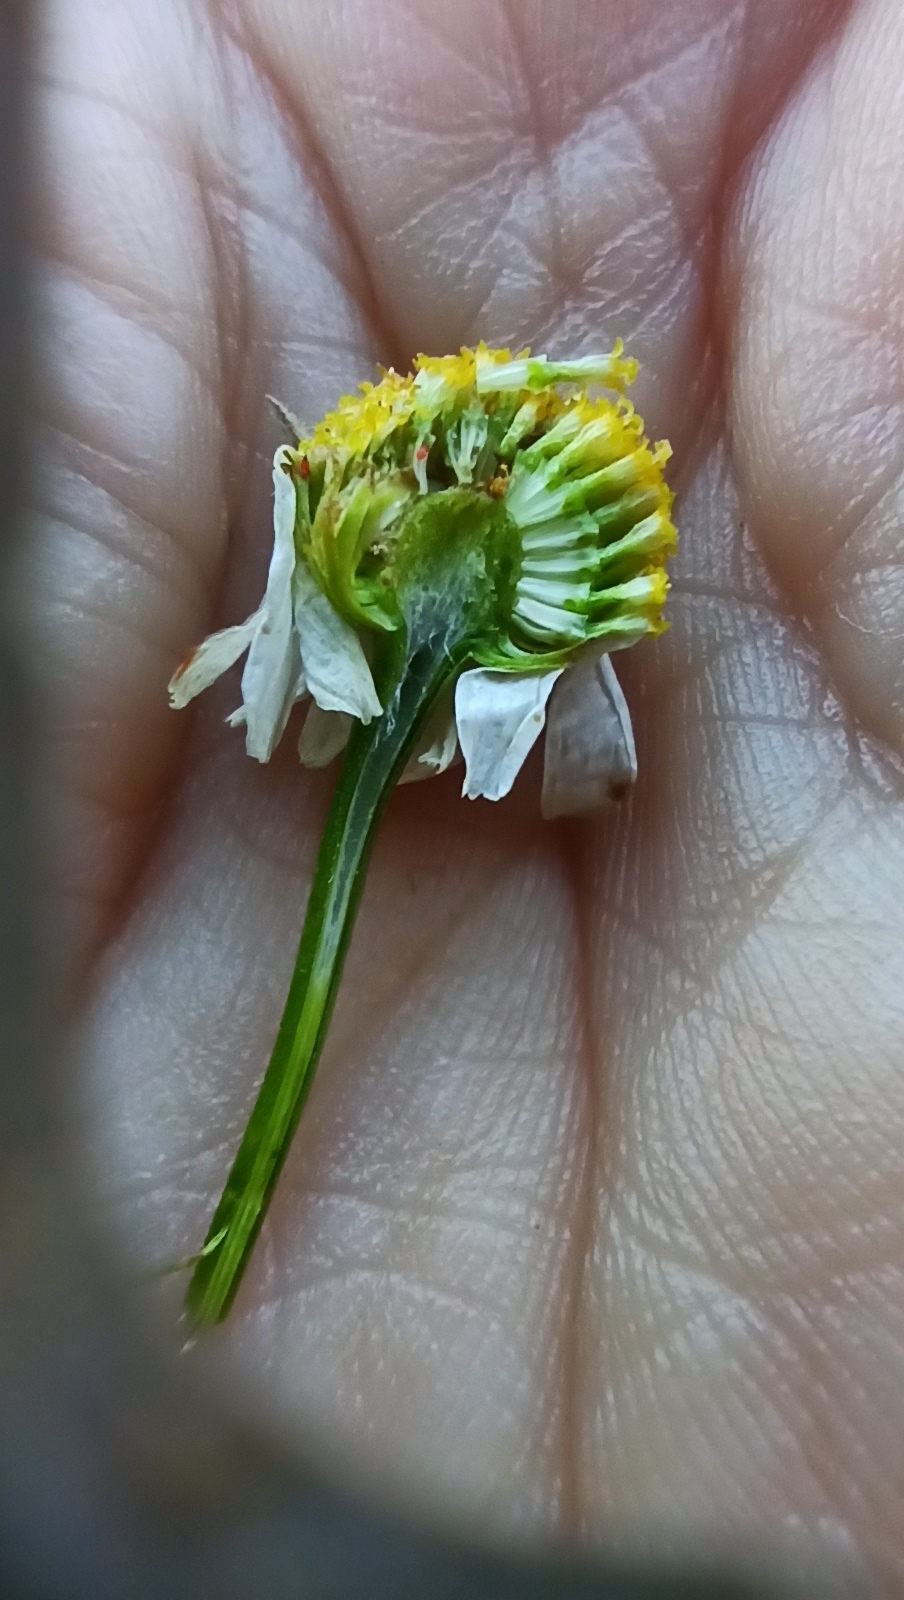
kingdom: Plantae
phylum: Tracheophyta
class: Magnoliopsida
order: Asterales
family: Asteraceae
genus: Tripleurospermum
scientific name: Tripleurospermum inodorum
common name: Scentless mayweed
